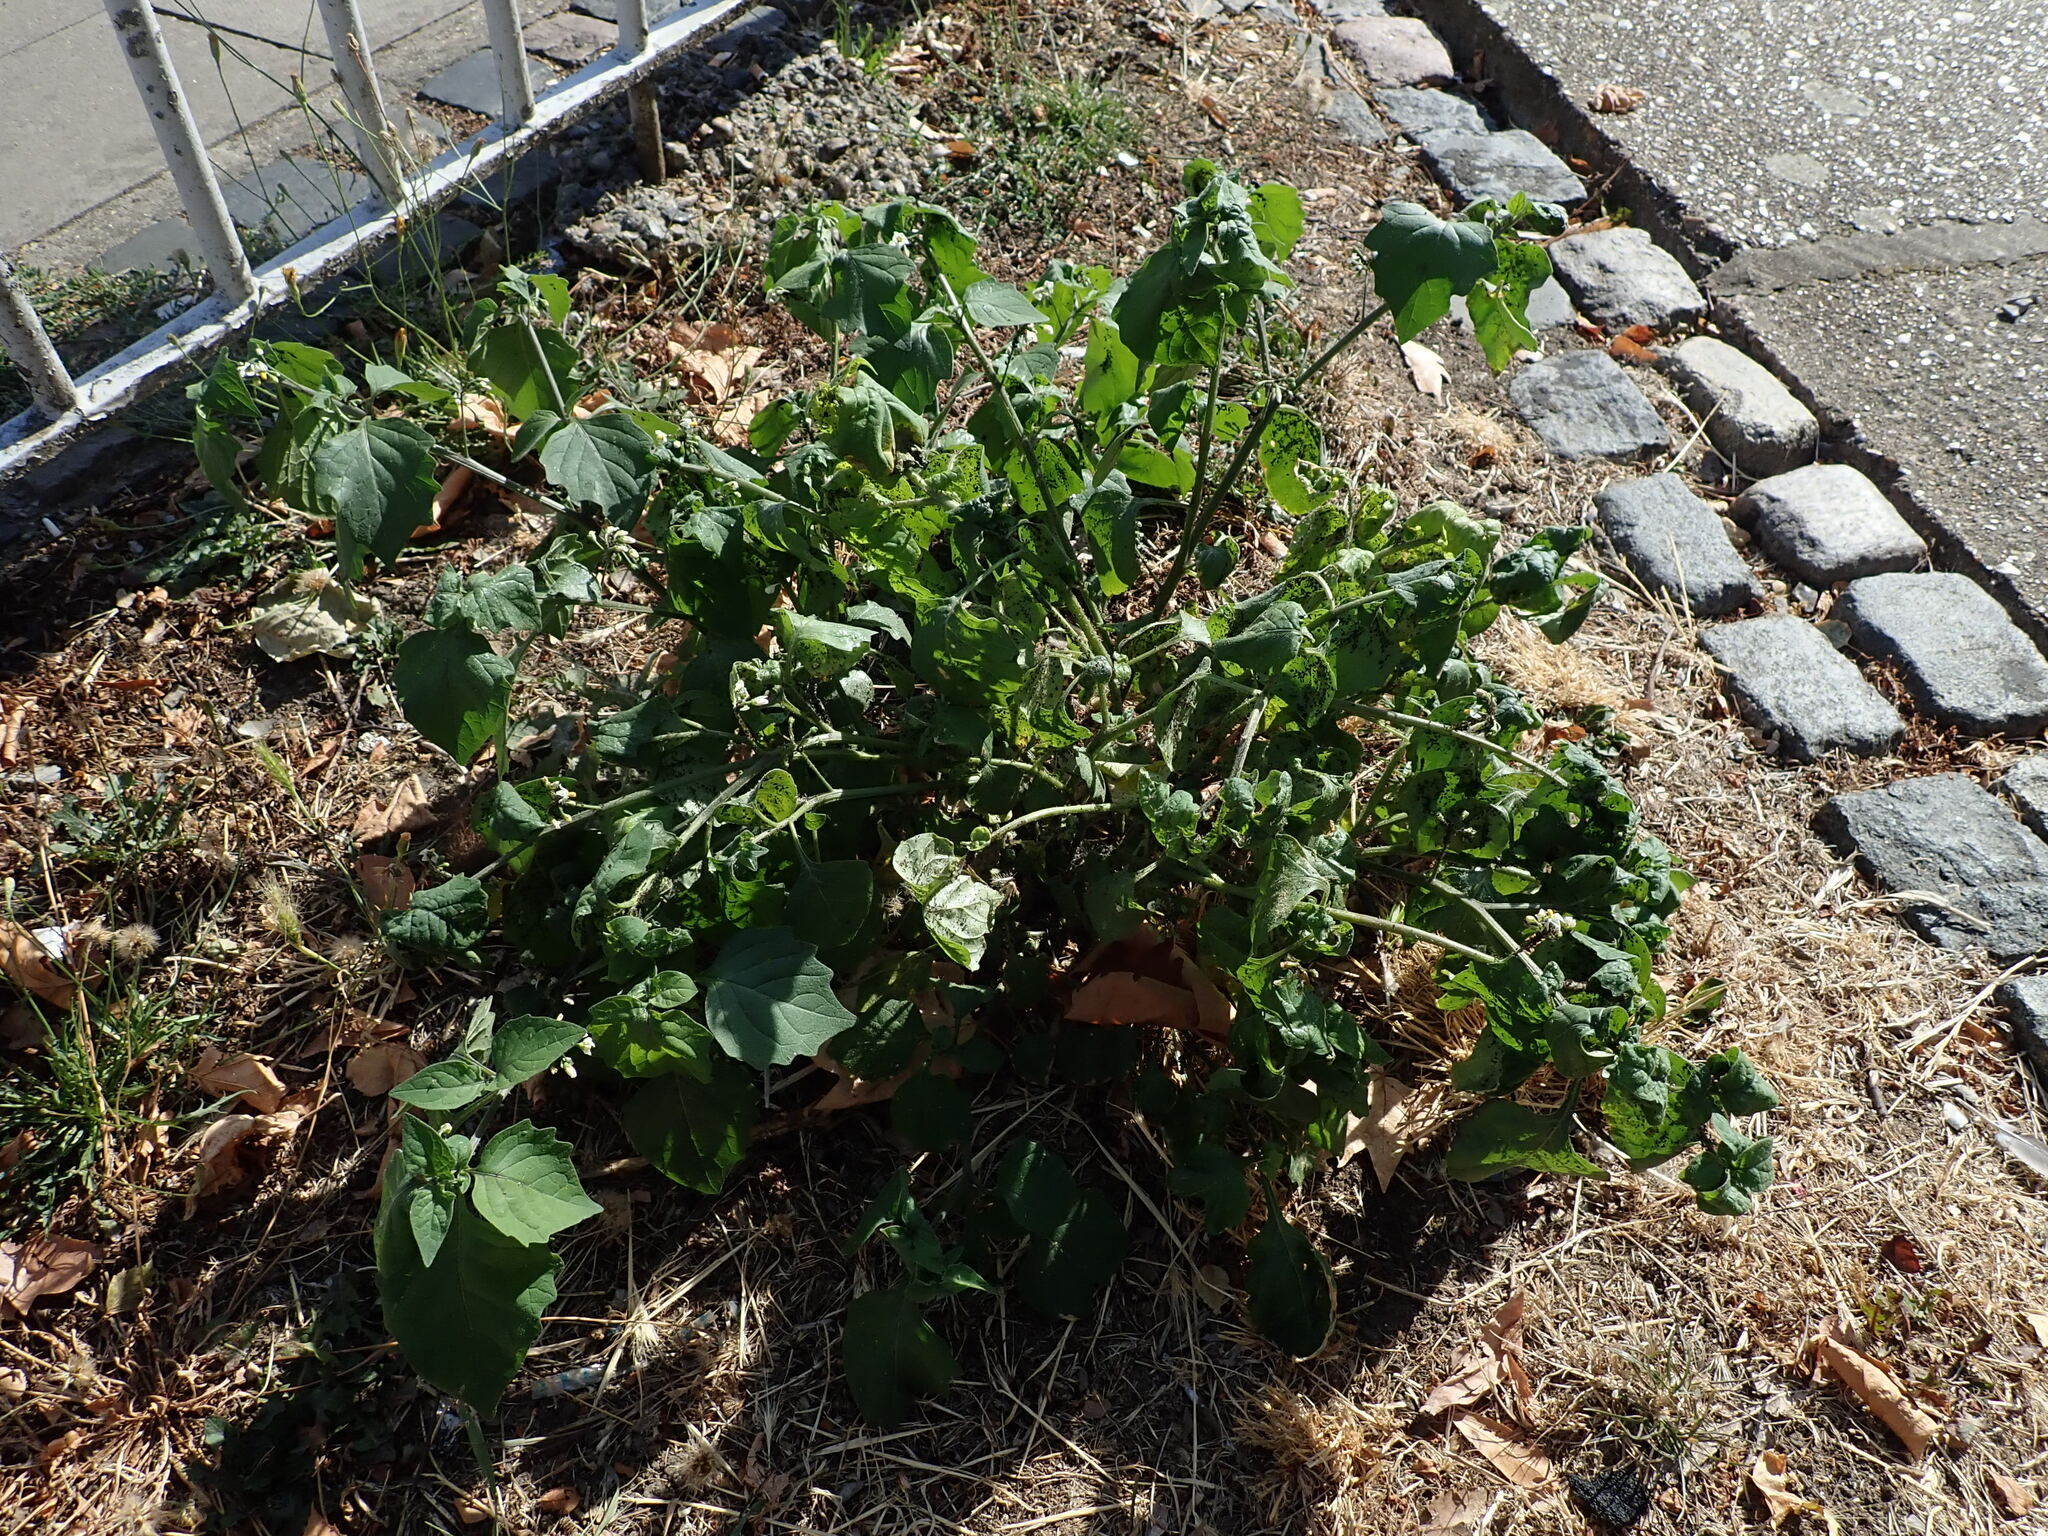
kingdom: Plantae
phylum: Tracheophyta
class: Magnoliopsida
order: Solanales
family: Solanaceae
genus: Solanum
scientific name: Solanum nigrum
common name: Black nightshade
